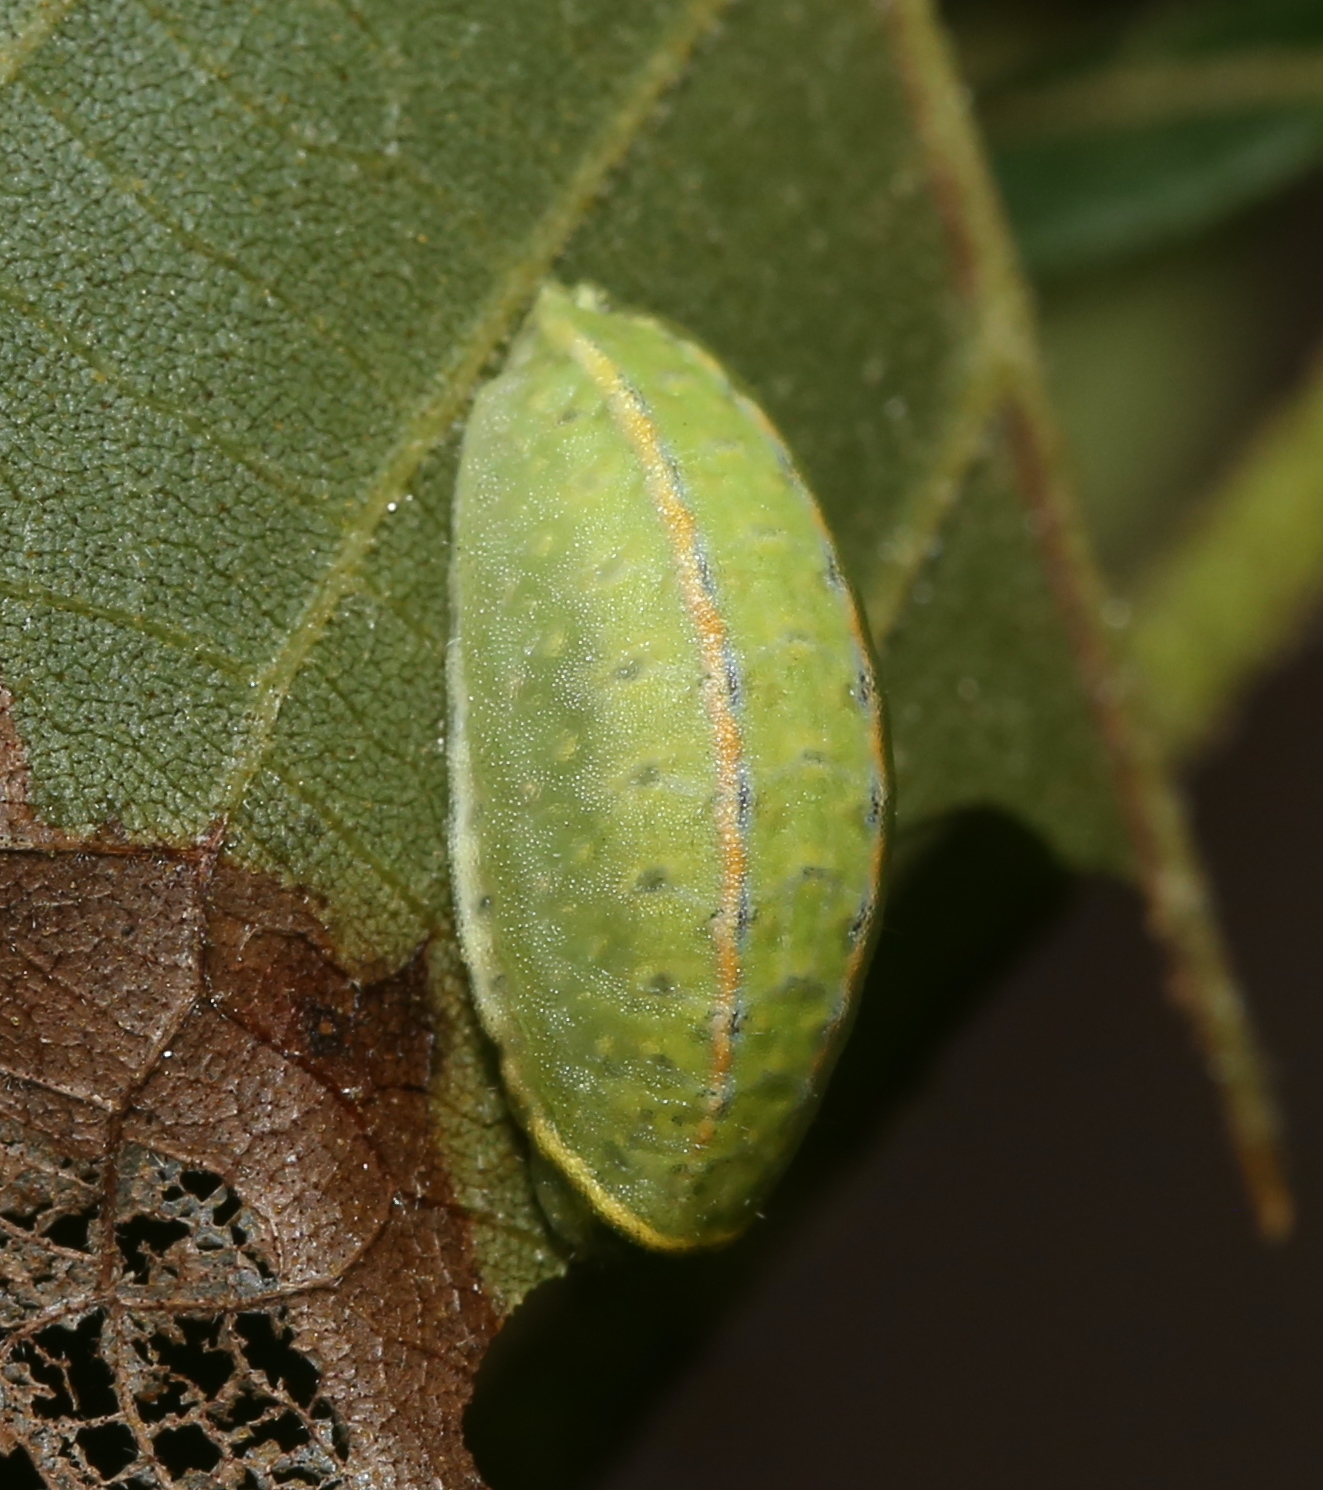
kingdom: Animalia
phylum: Arthropoda
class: Insecta
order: Lepidoptera
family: Limacodidae
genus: Apoda
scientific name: Apoda y-inversa
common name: Yellow-collared slug moth
